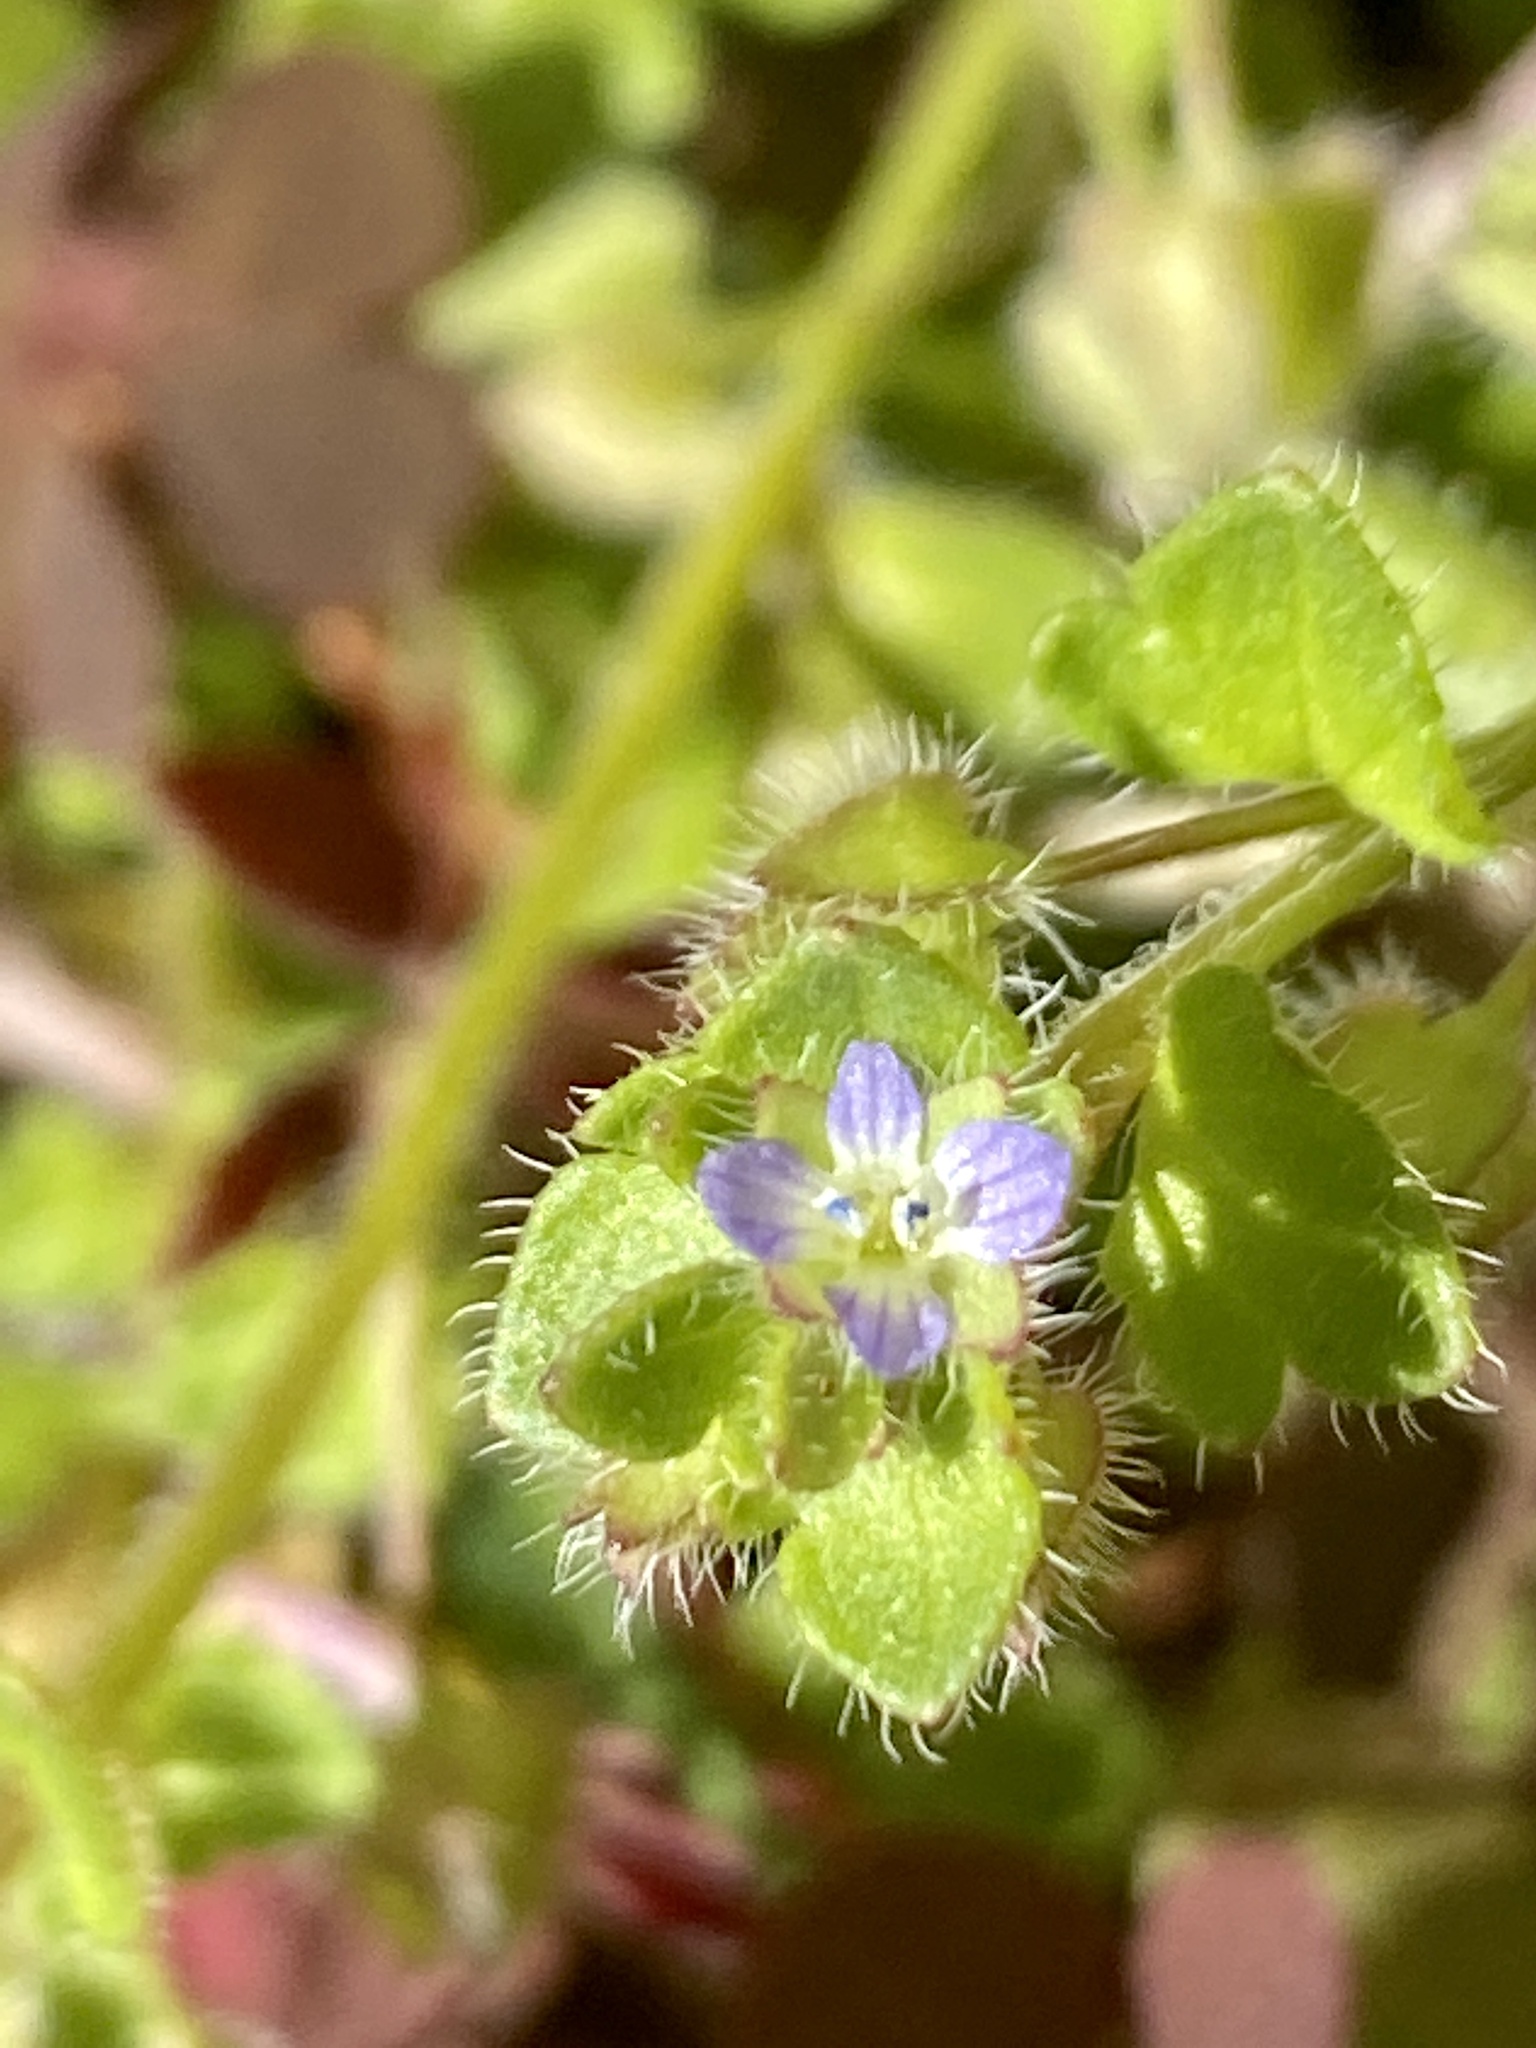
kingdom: Plantae
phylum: Tracheophyta
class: Magnoliopsida
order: Lamiales
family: Plantaginaceae
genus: Veronica
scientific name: Veronica hederifolia
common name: Ivy-leaved speedwell
